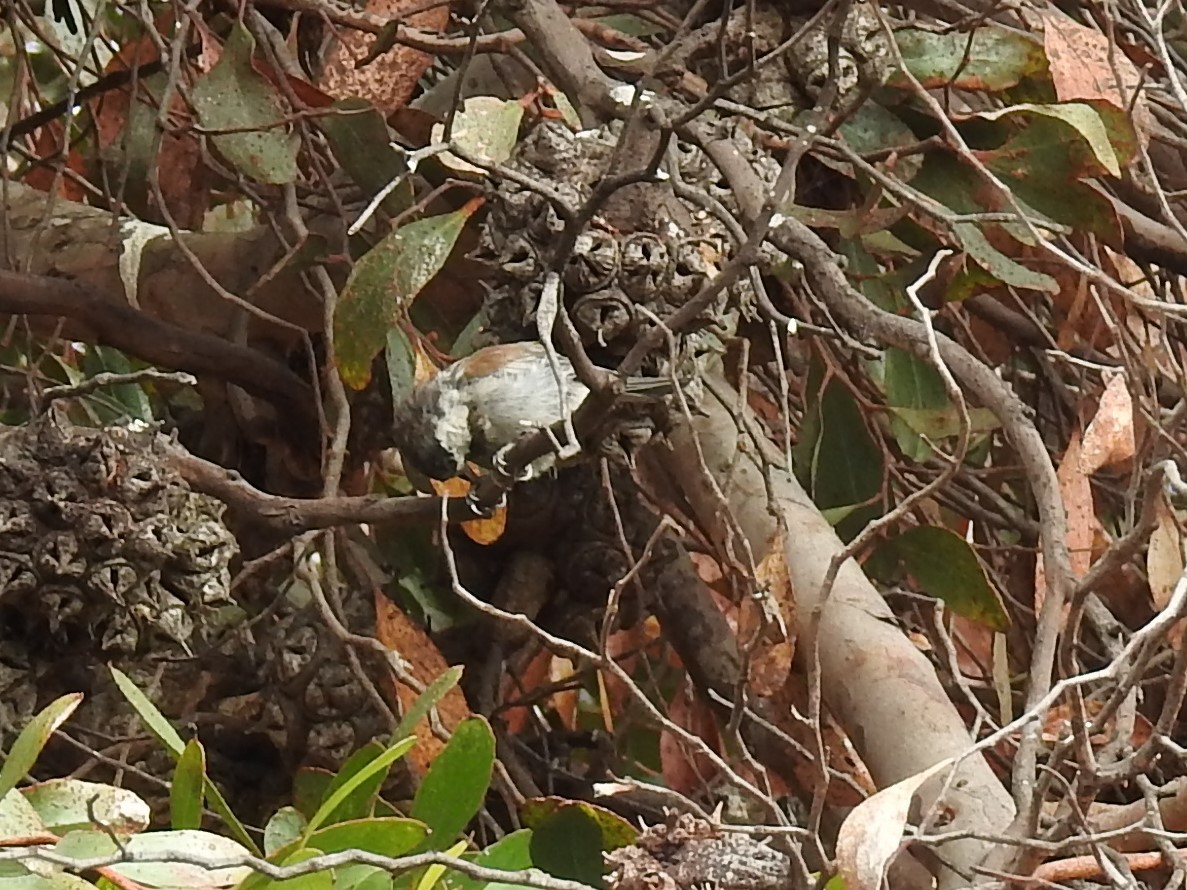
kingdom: Animalia
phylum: Chordata
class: Aves
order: Passeriformes
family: Paridae
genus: Poecile
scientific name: Poecile rufescens
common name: Chestnut-backed chickadee
